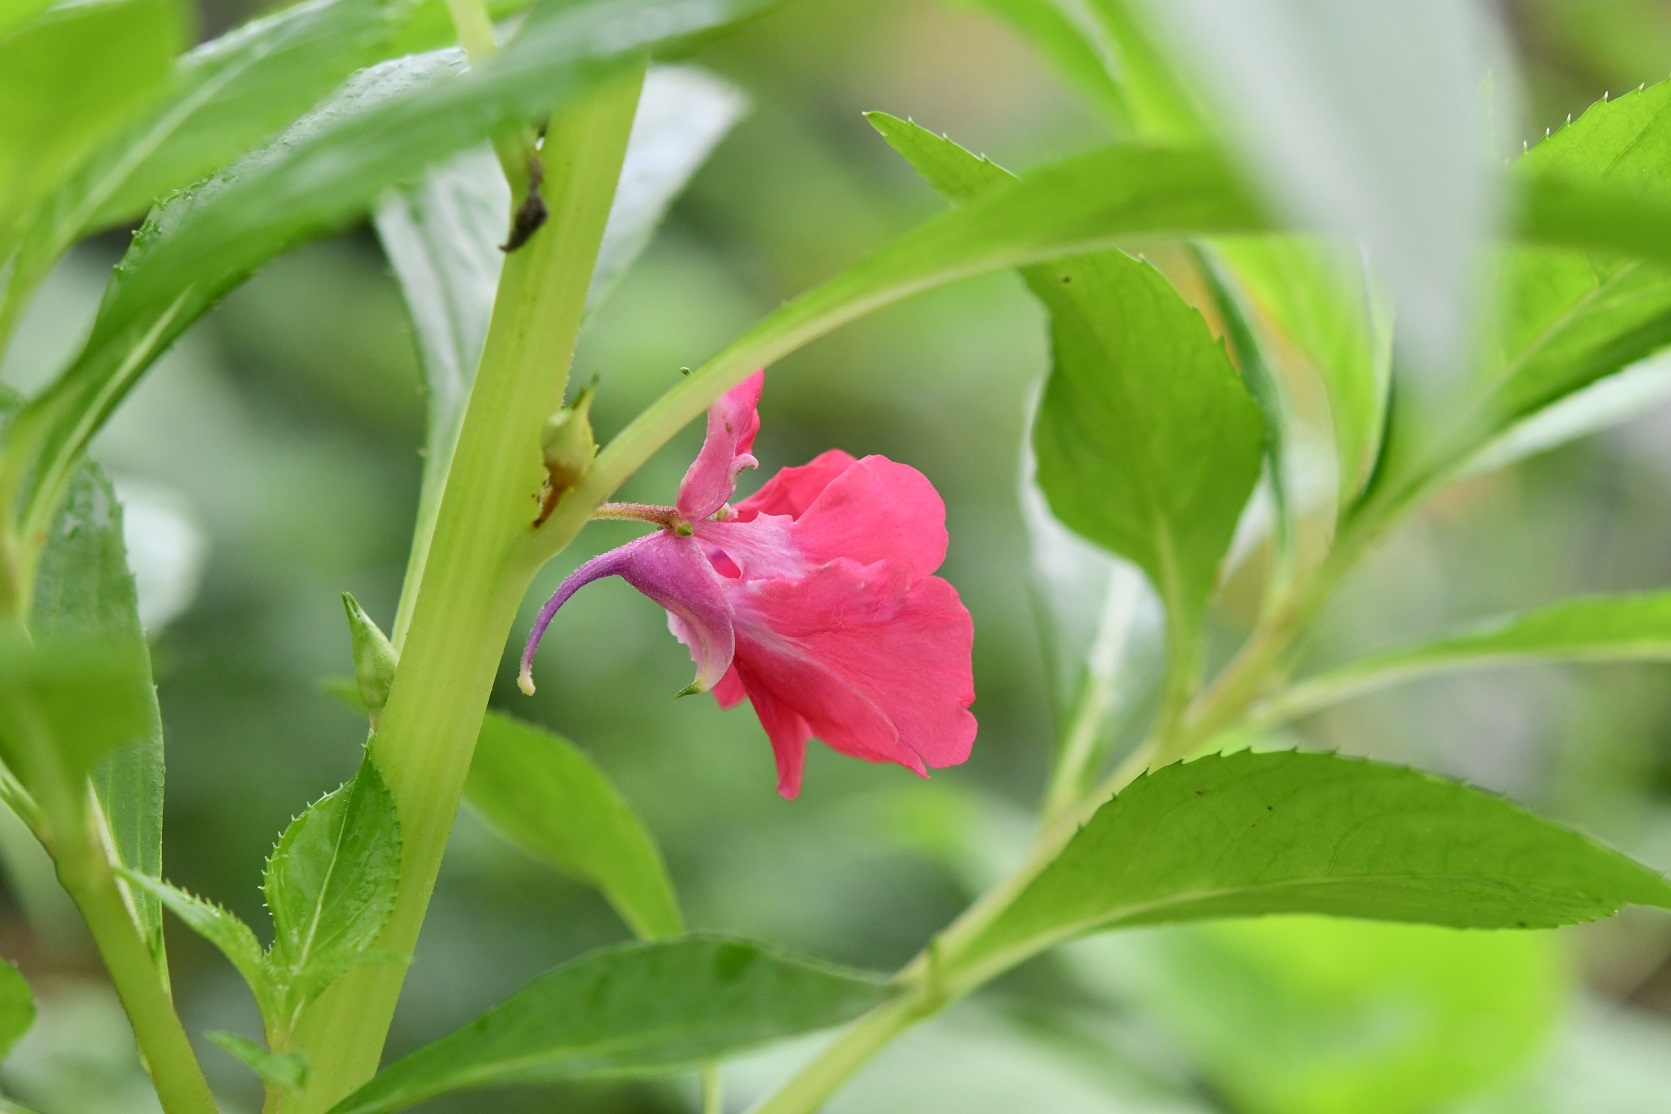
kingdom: Plantae
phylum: Tracheophyta
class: Magnoliopsida
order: Ericales
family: Balsaminaceae
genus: Impatiens
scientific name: Impatiens balsamina
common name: Balsam
